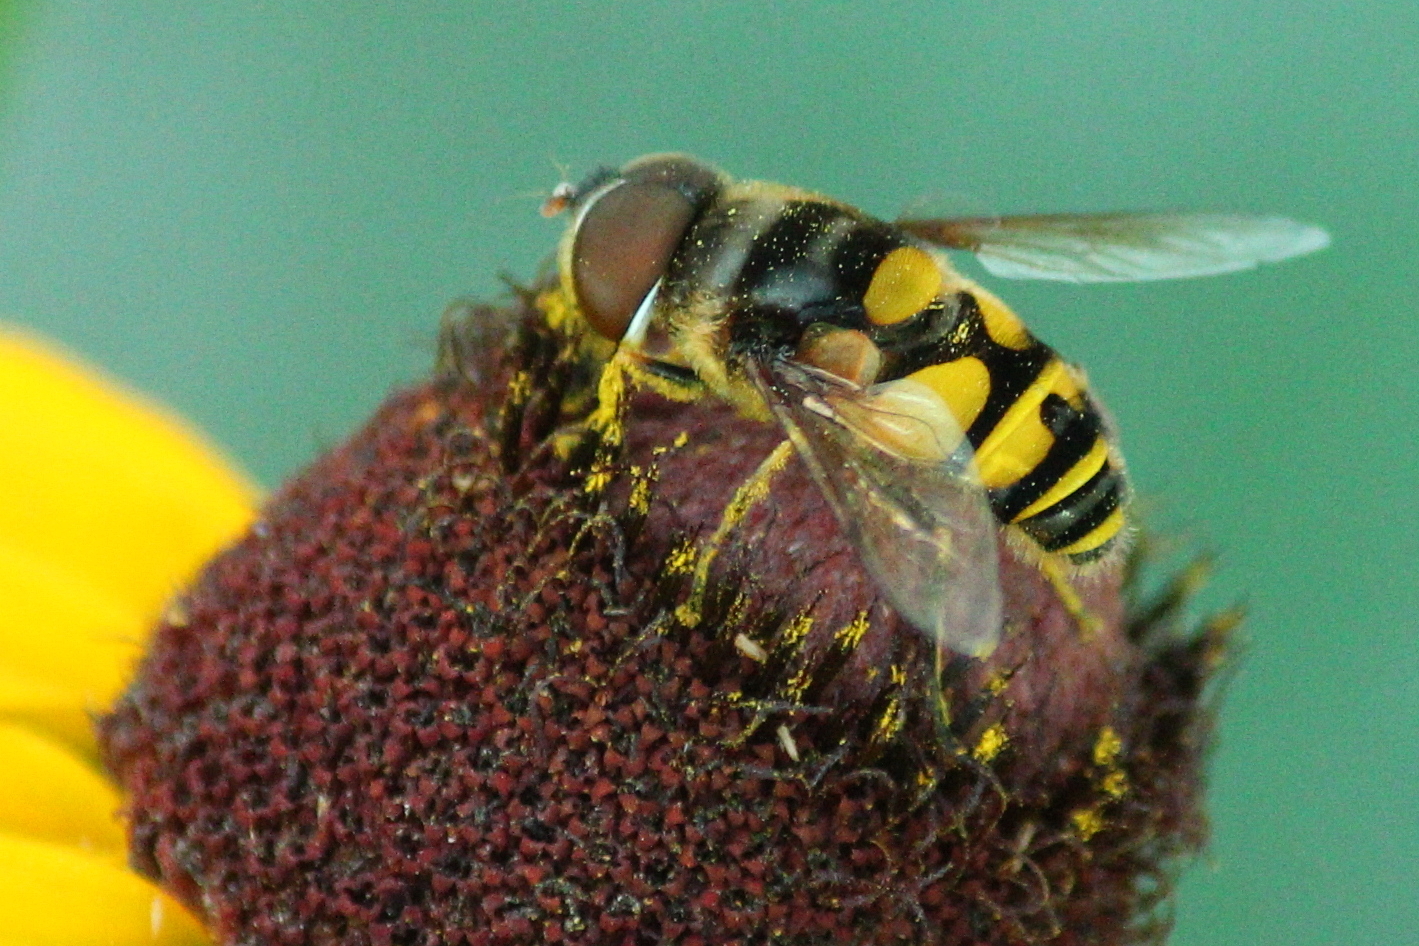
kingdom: Animalia
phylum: Arthropoda
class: Insecta
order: Diptera
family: Syrphidae
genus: Eristalis
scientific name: Eristalis transversa
